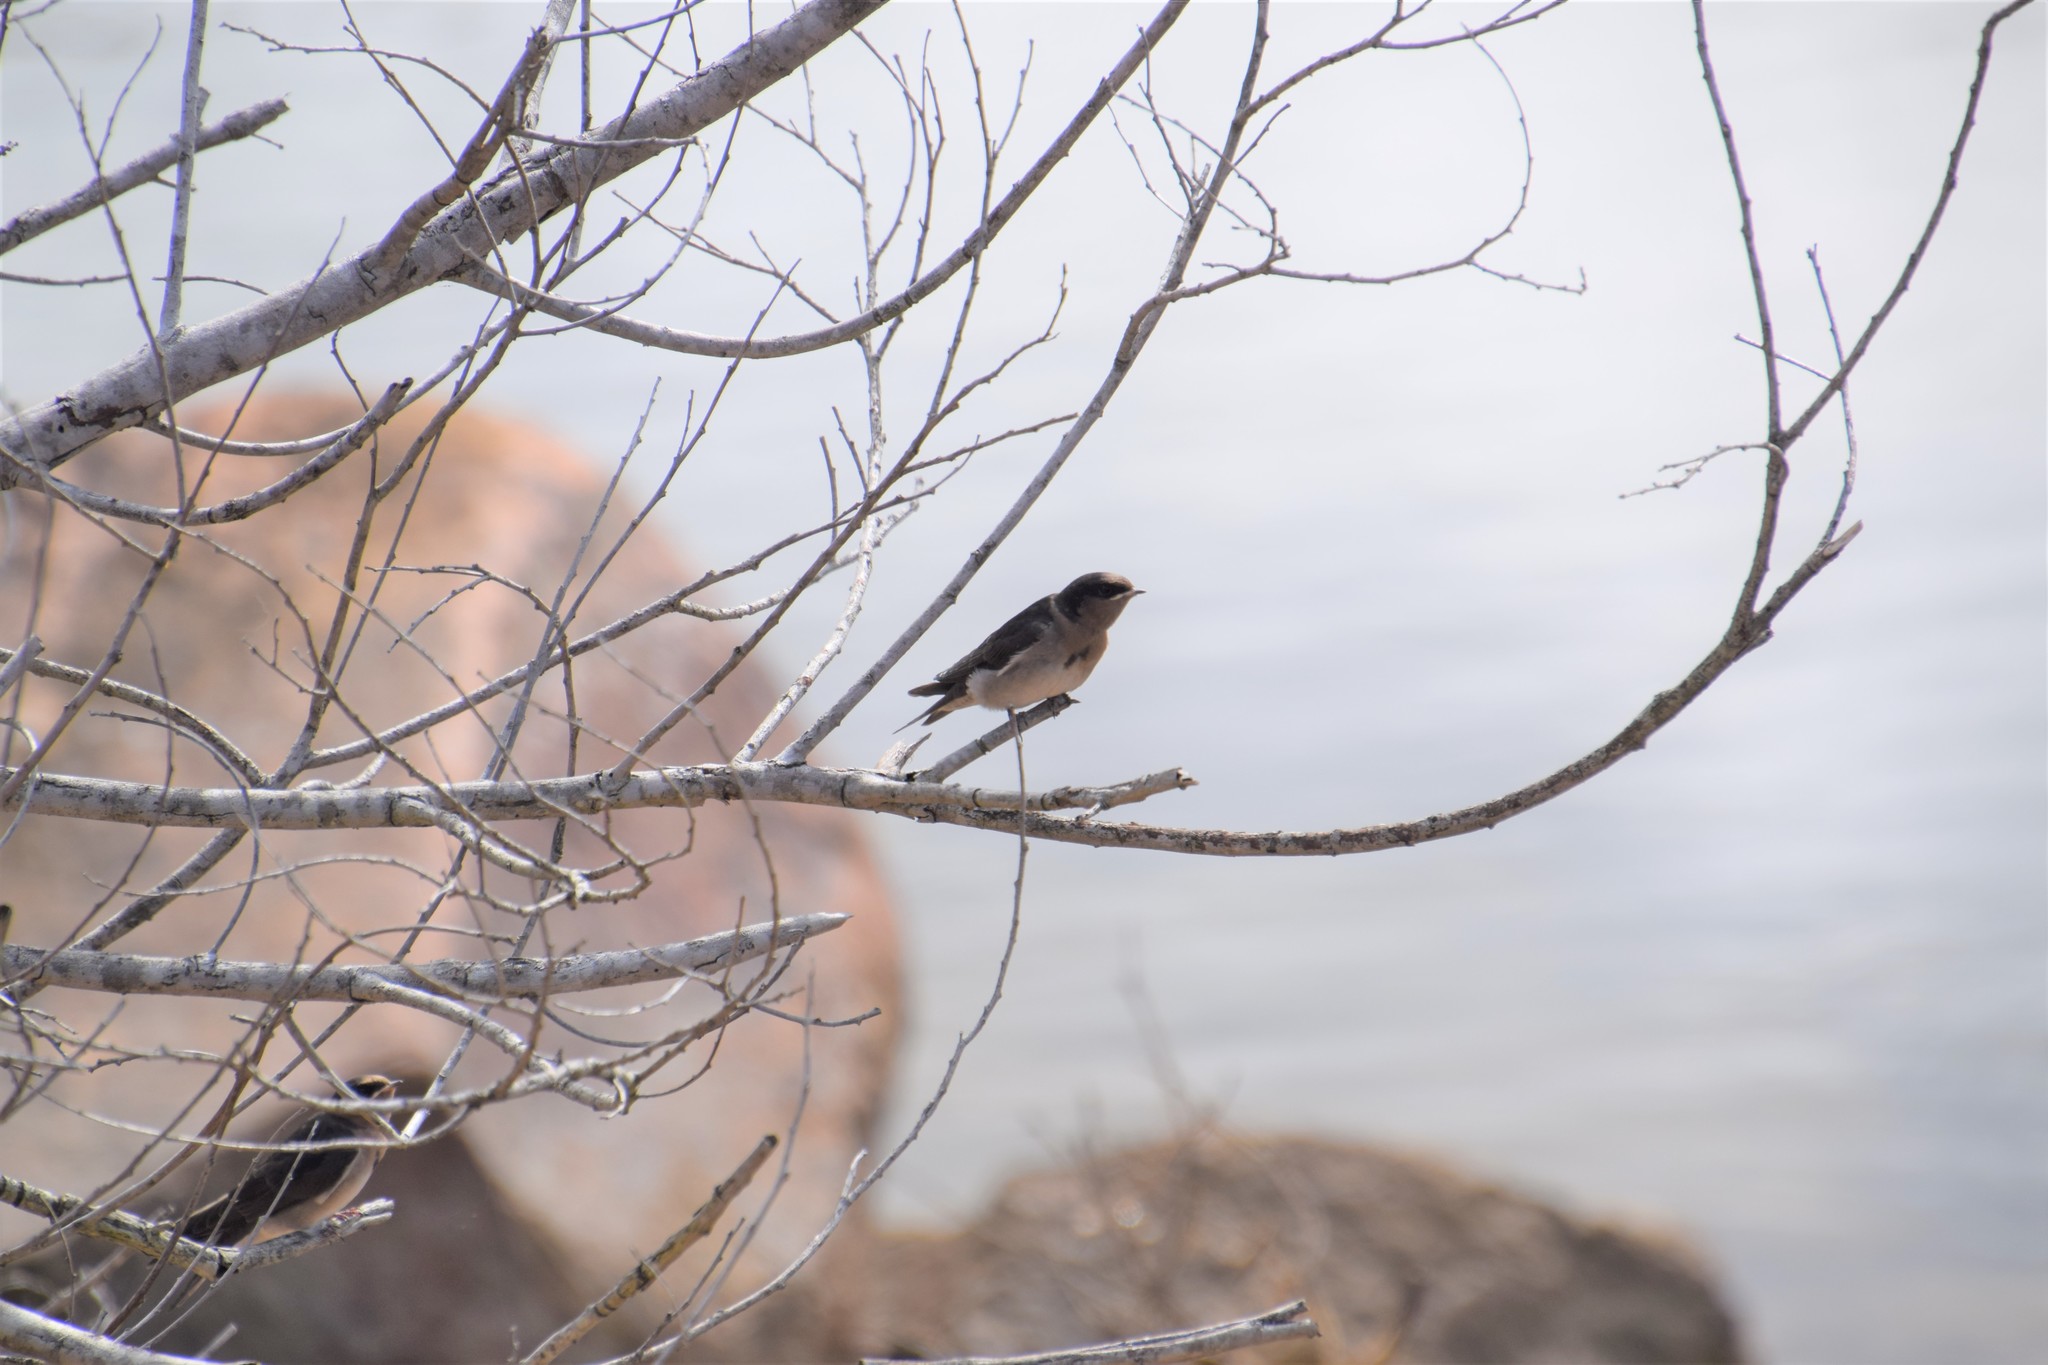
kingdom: Animalia
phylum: Chordata
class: Aves
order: Passeriformes
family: Hirundinidae
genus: Hirundo
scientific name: Hirundo neoxena
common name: Welcome swallow
